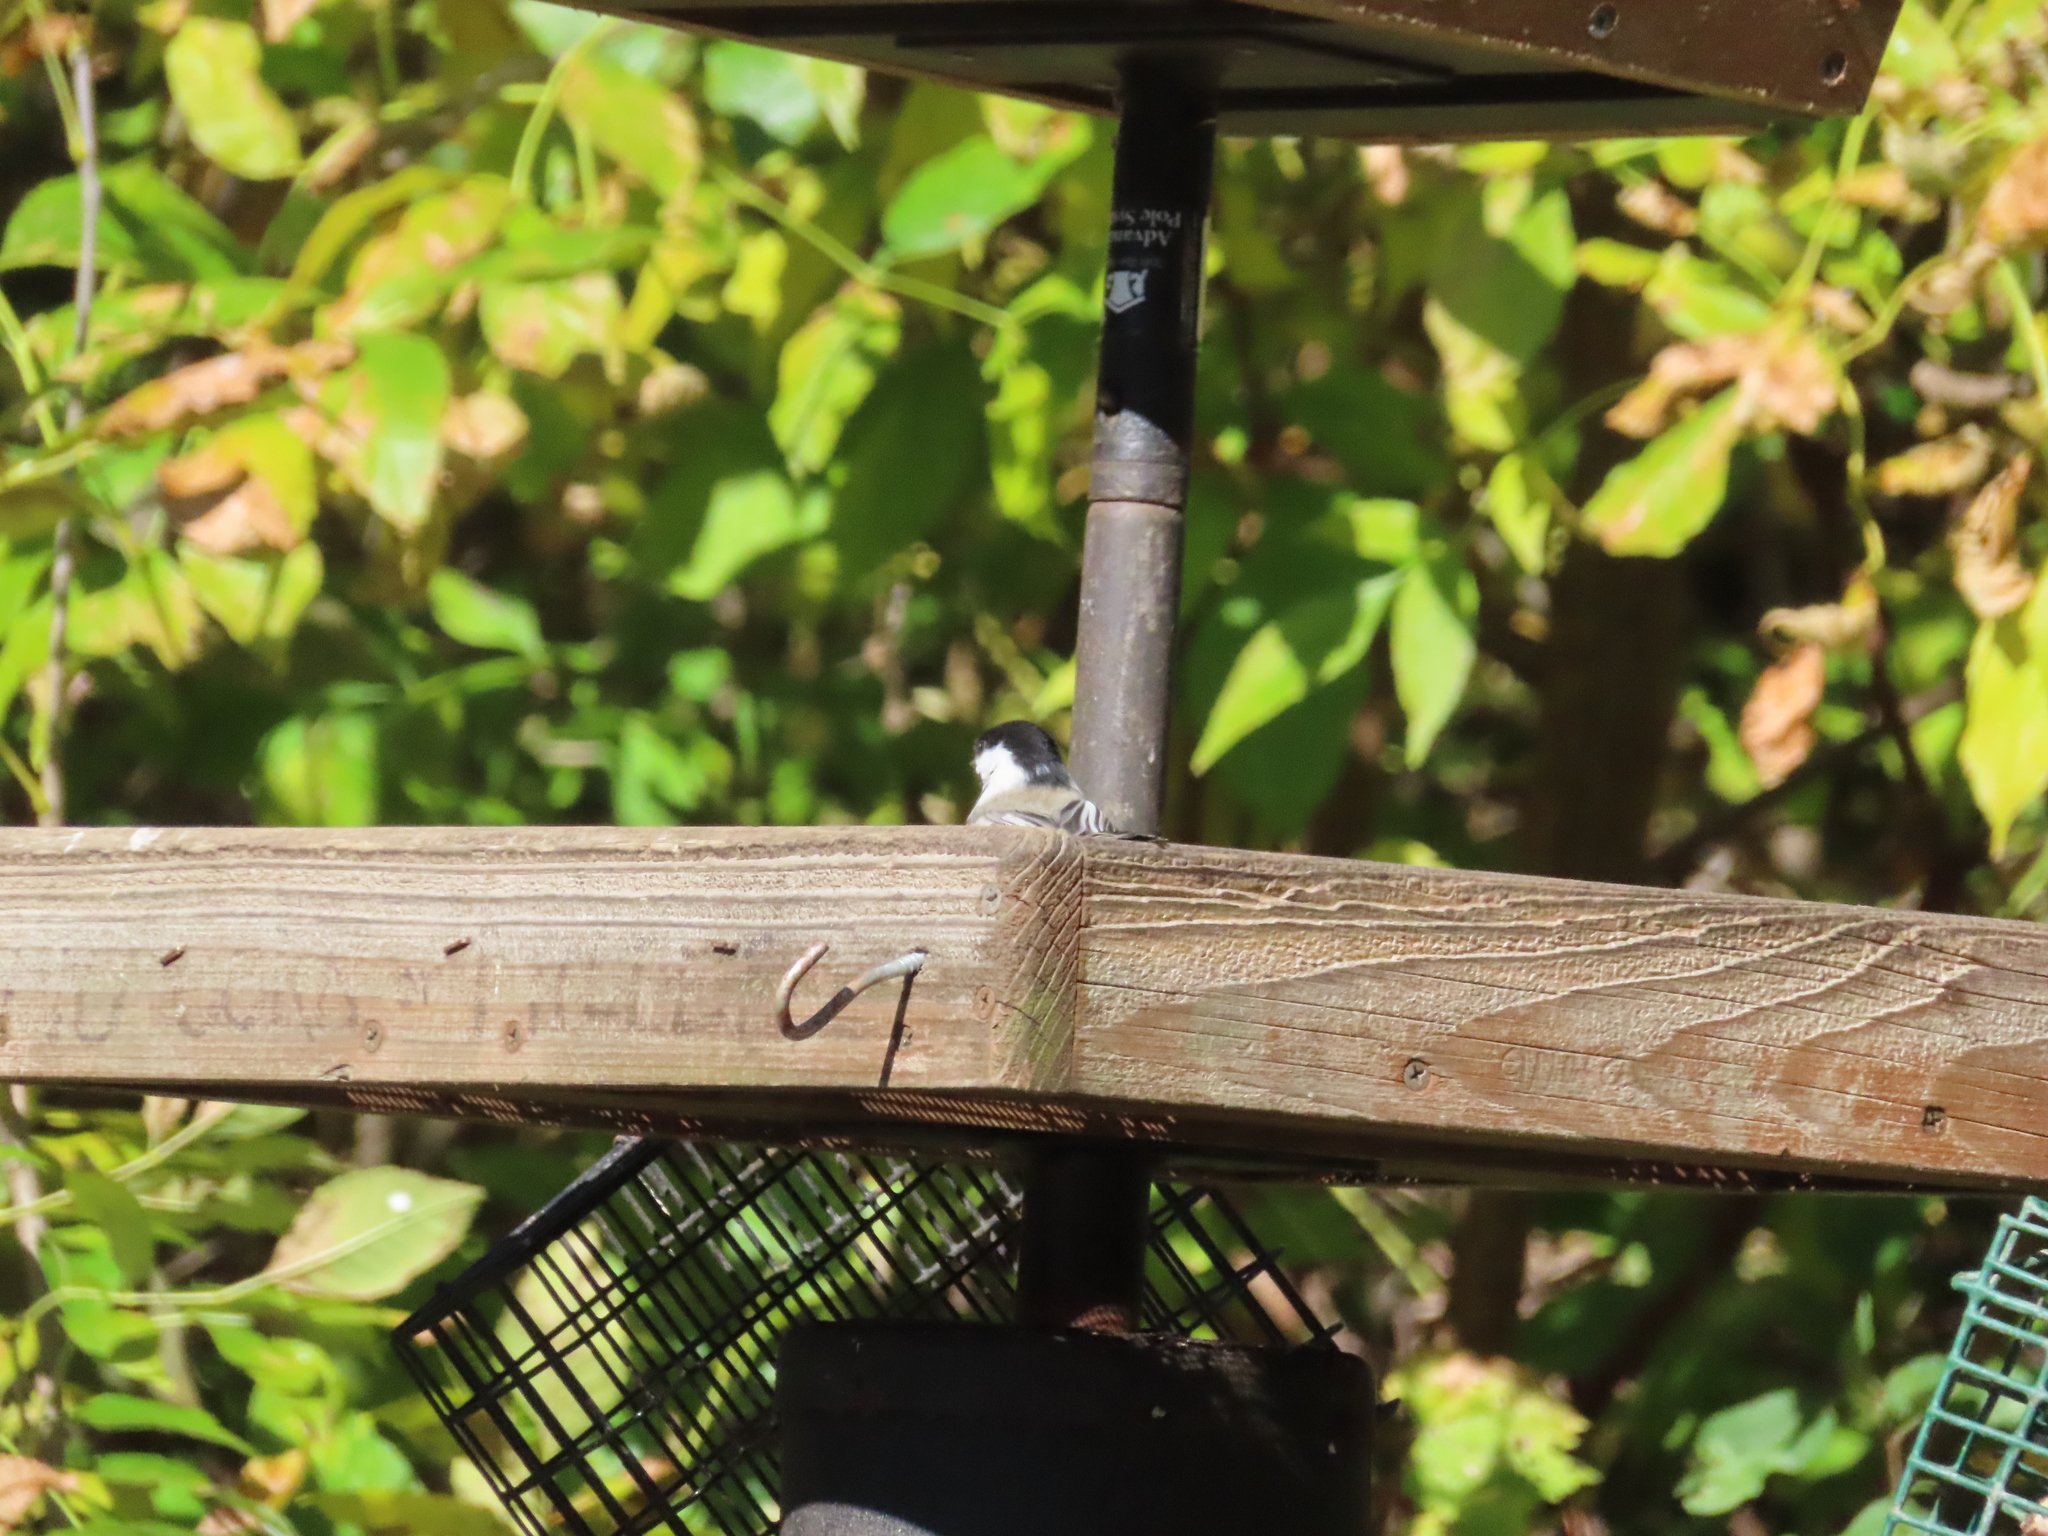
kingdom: Animalia
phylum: Chordata
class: Aves
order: Passeriformes
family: Paridae
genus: Poecile
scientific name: Poecile atricapillus
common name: Black-capped chickadee
